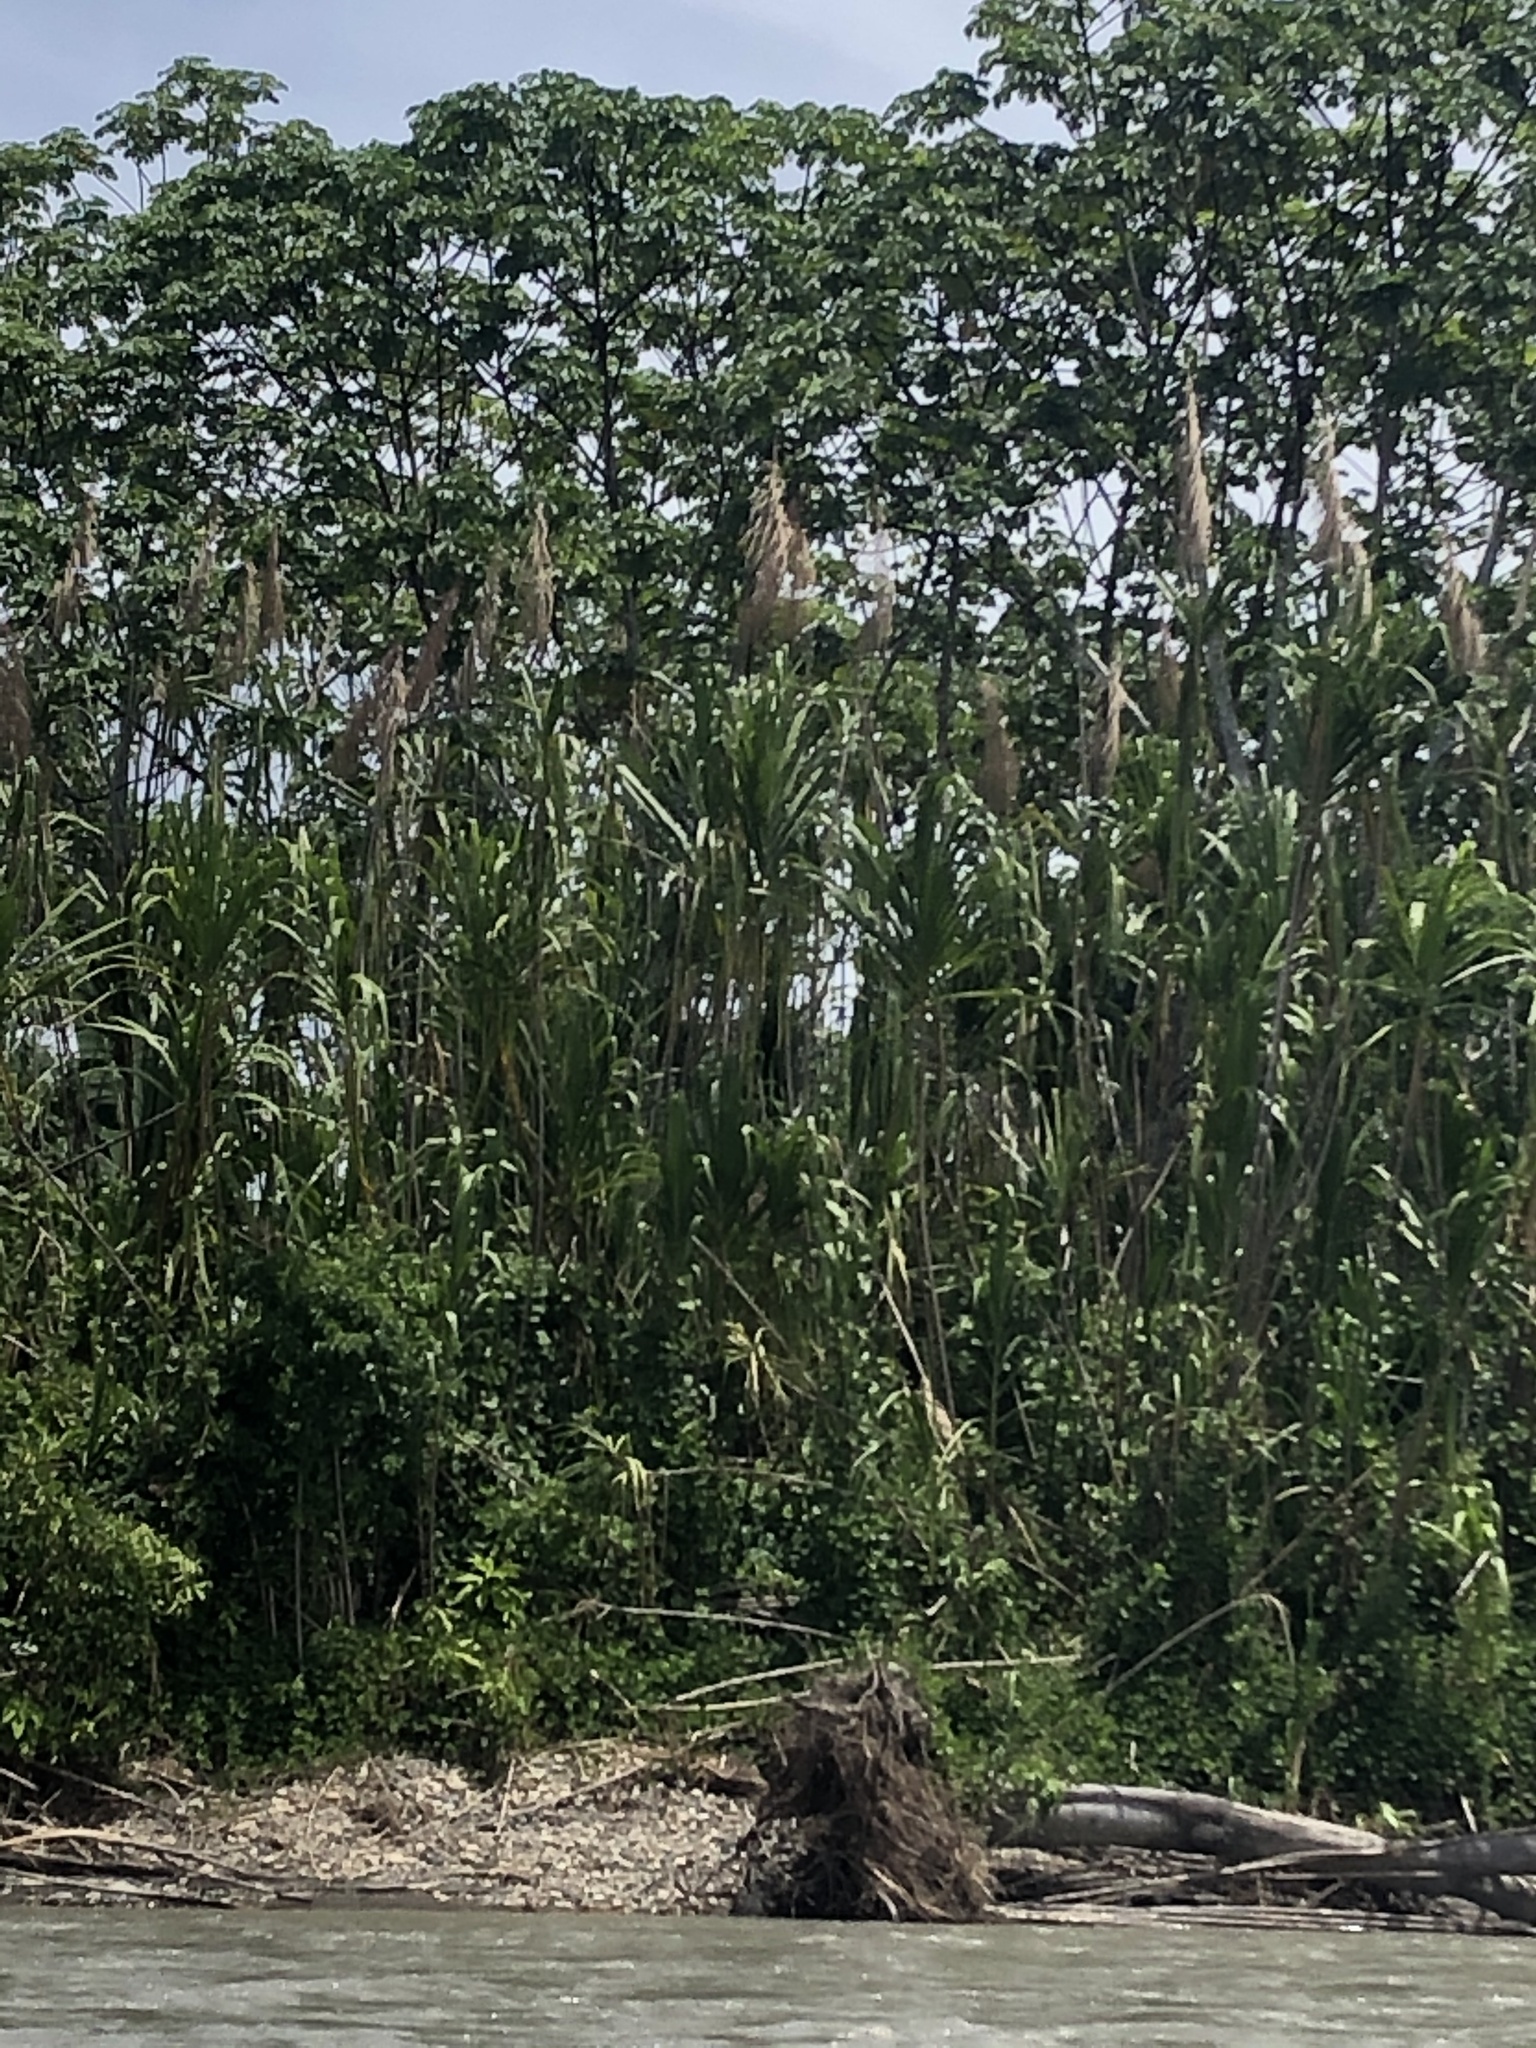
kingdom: Plantae
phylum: Tracheophyta
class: Liliopsida
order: Poales
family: Poaceae
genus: Gynerium
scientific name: Gynerium sagittatum
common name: Wild cane
